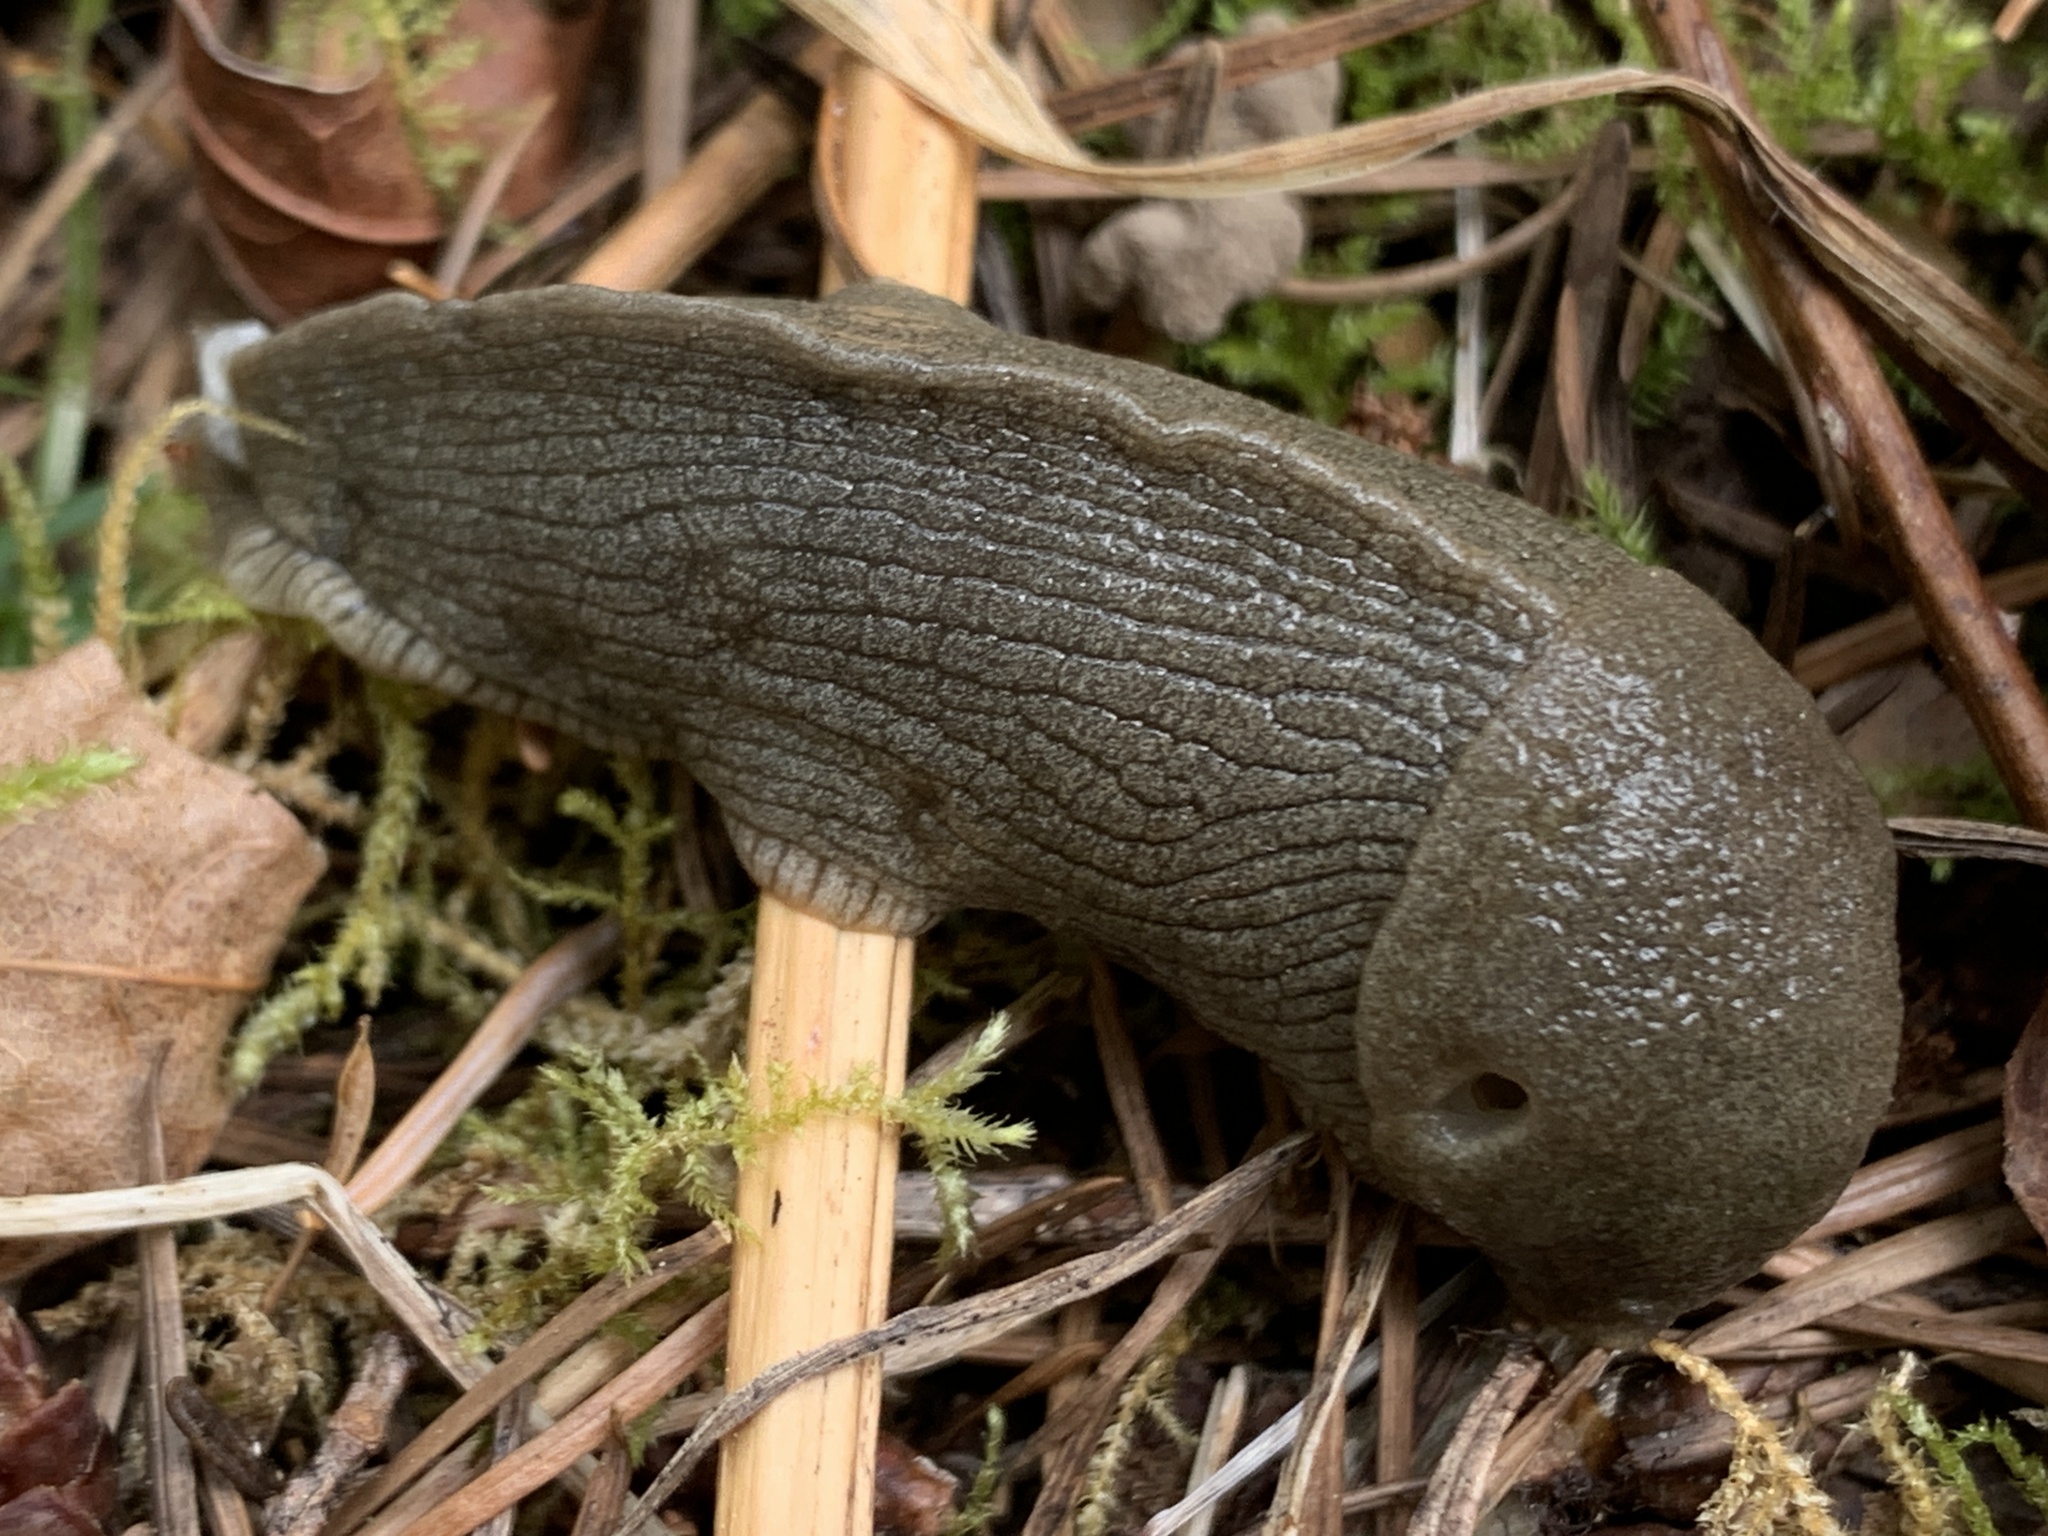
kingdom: Animalia
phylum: Mollusca
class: Gastropoda
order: Stylommatophora
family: Ariolimacidae
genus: Ariolimax
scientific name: Ariolimax columbianus
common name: Pacific banana slug
